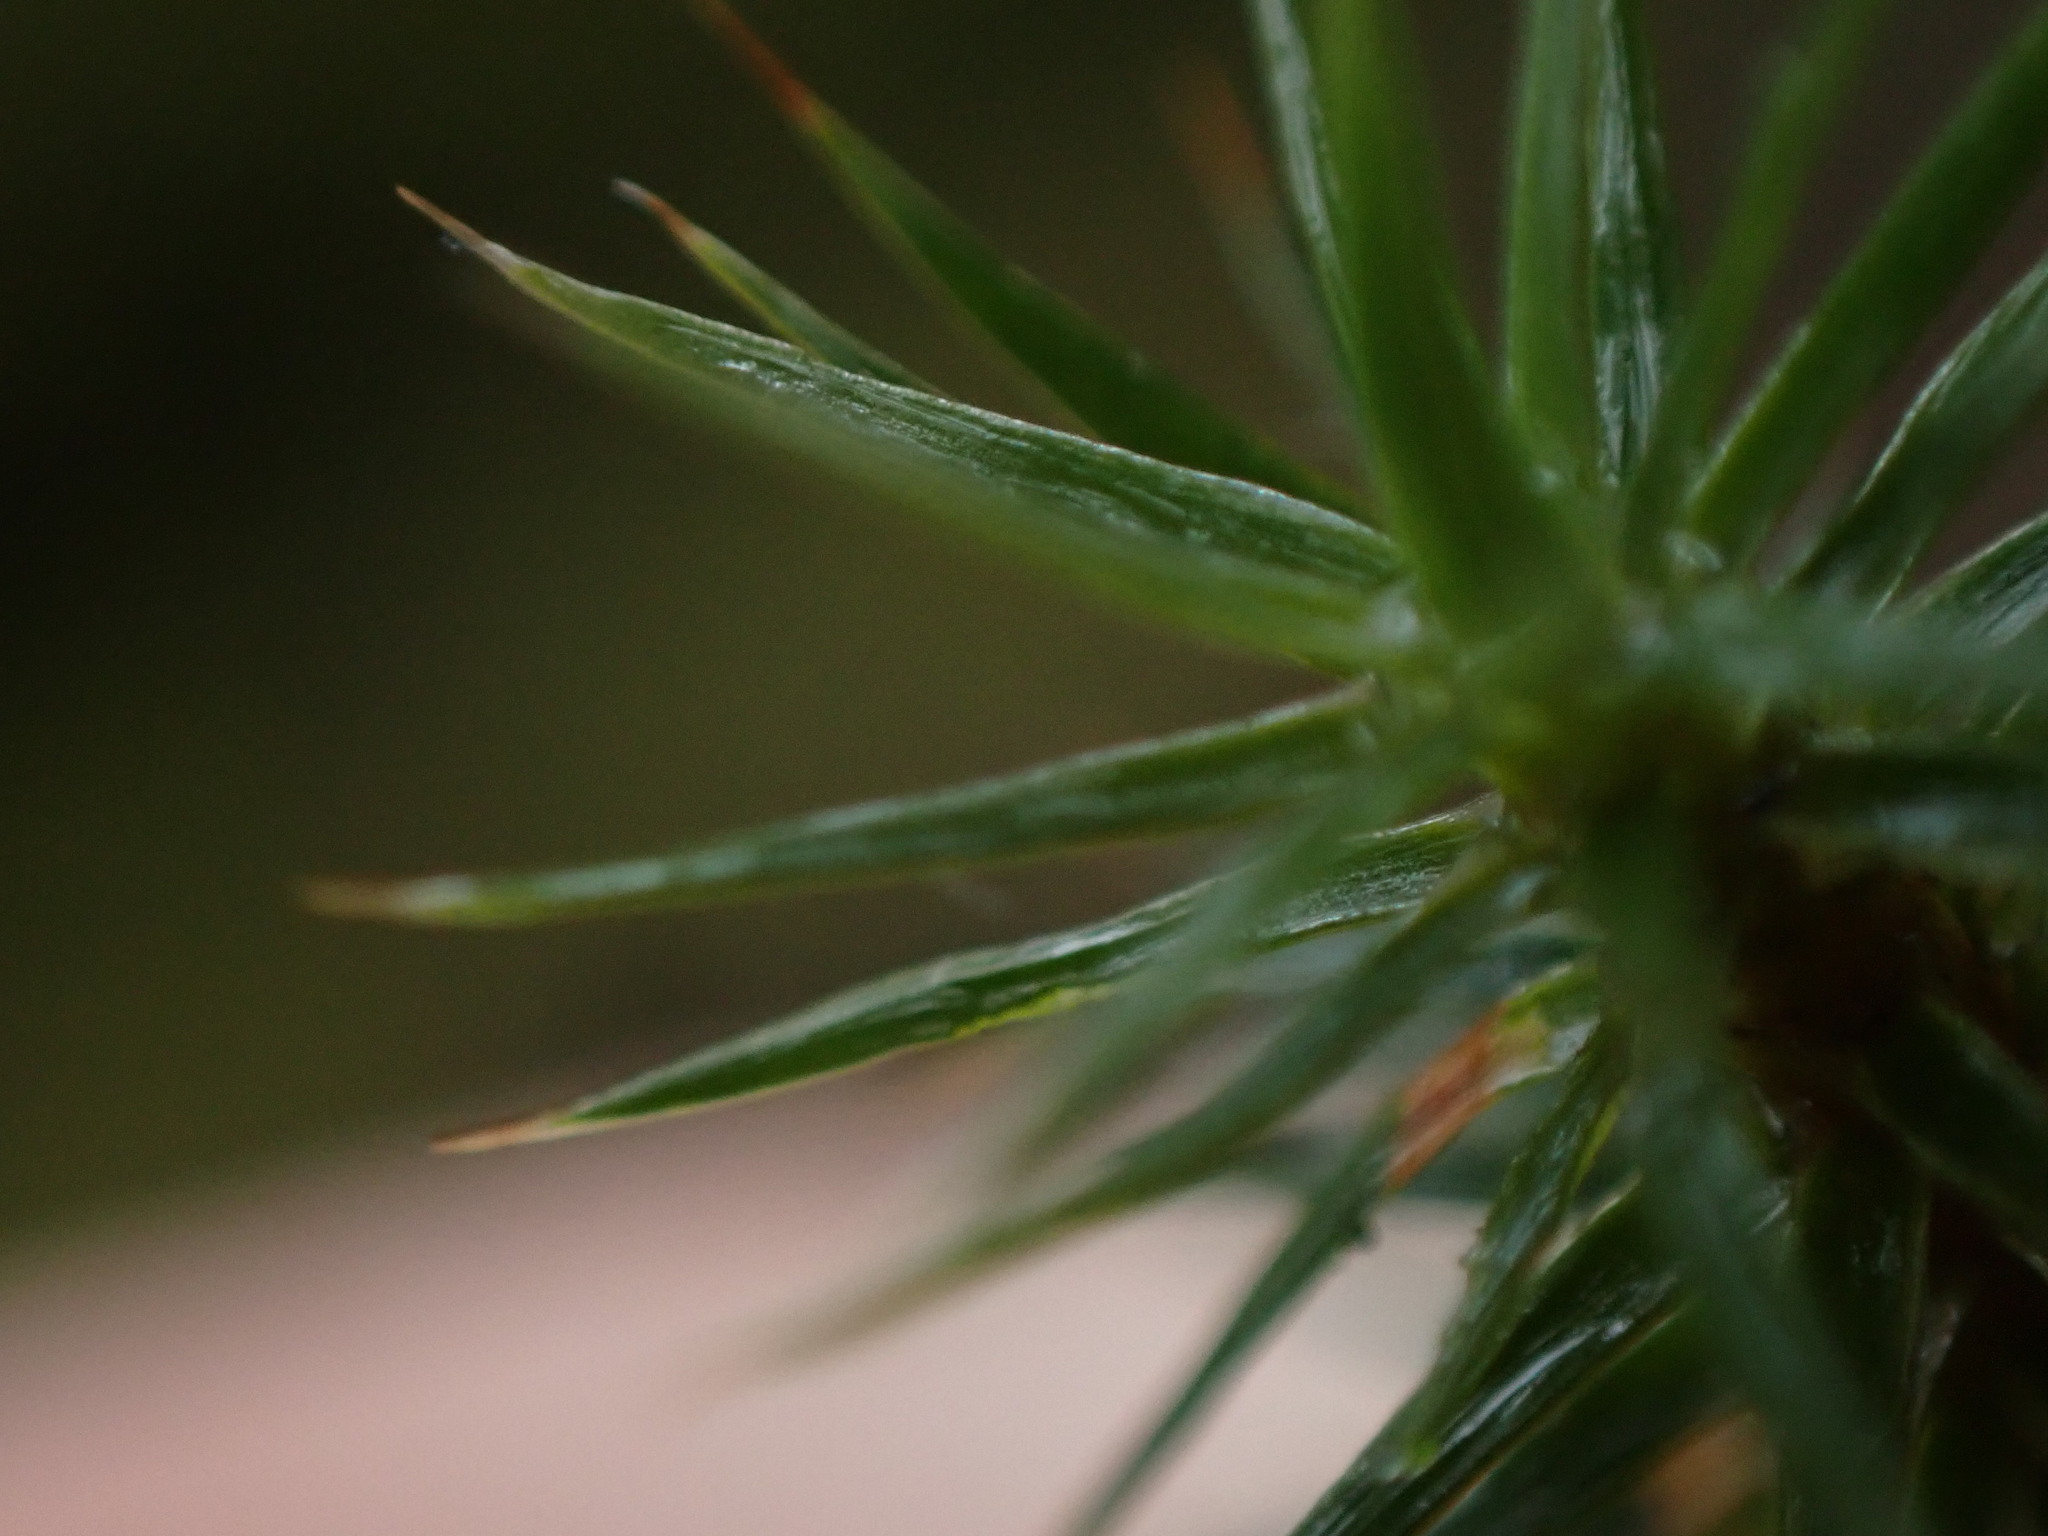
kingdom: Plantae
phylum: Bryophyta
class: Polytrichopsida
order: Polytrichales
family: Polytrichaceae
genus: Polytrichum
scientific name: Polytrichum juniperinum
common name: Juniper haircap moss
